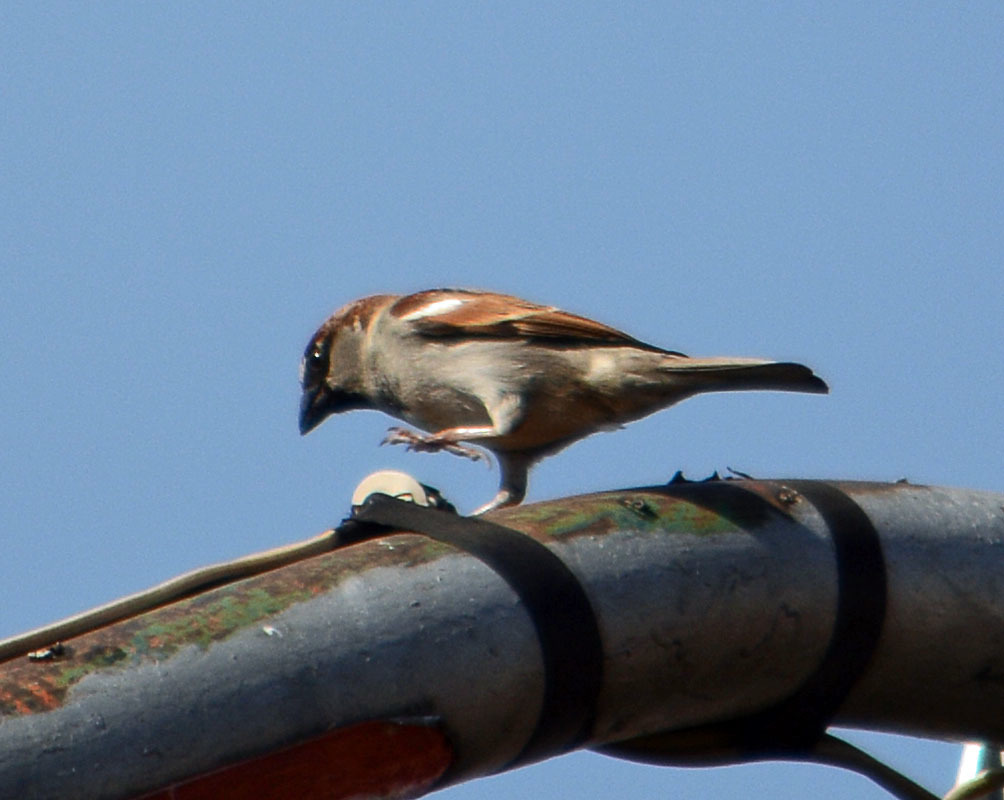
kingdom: Animalia
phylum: Chordata
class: Aves
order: Passeriformes
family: Passeridae
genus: Passer
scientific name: Passer domesticus
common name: House sparrow
